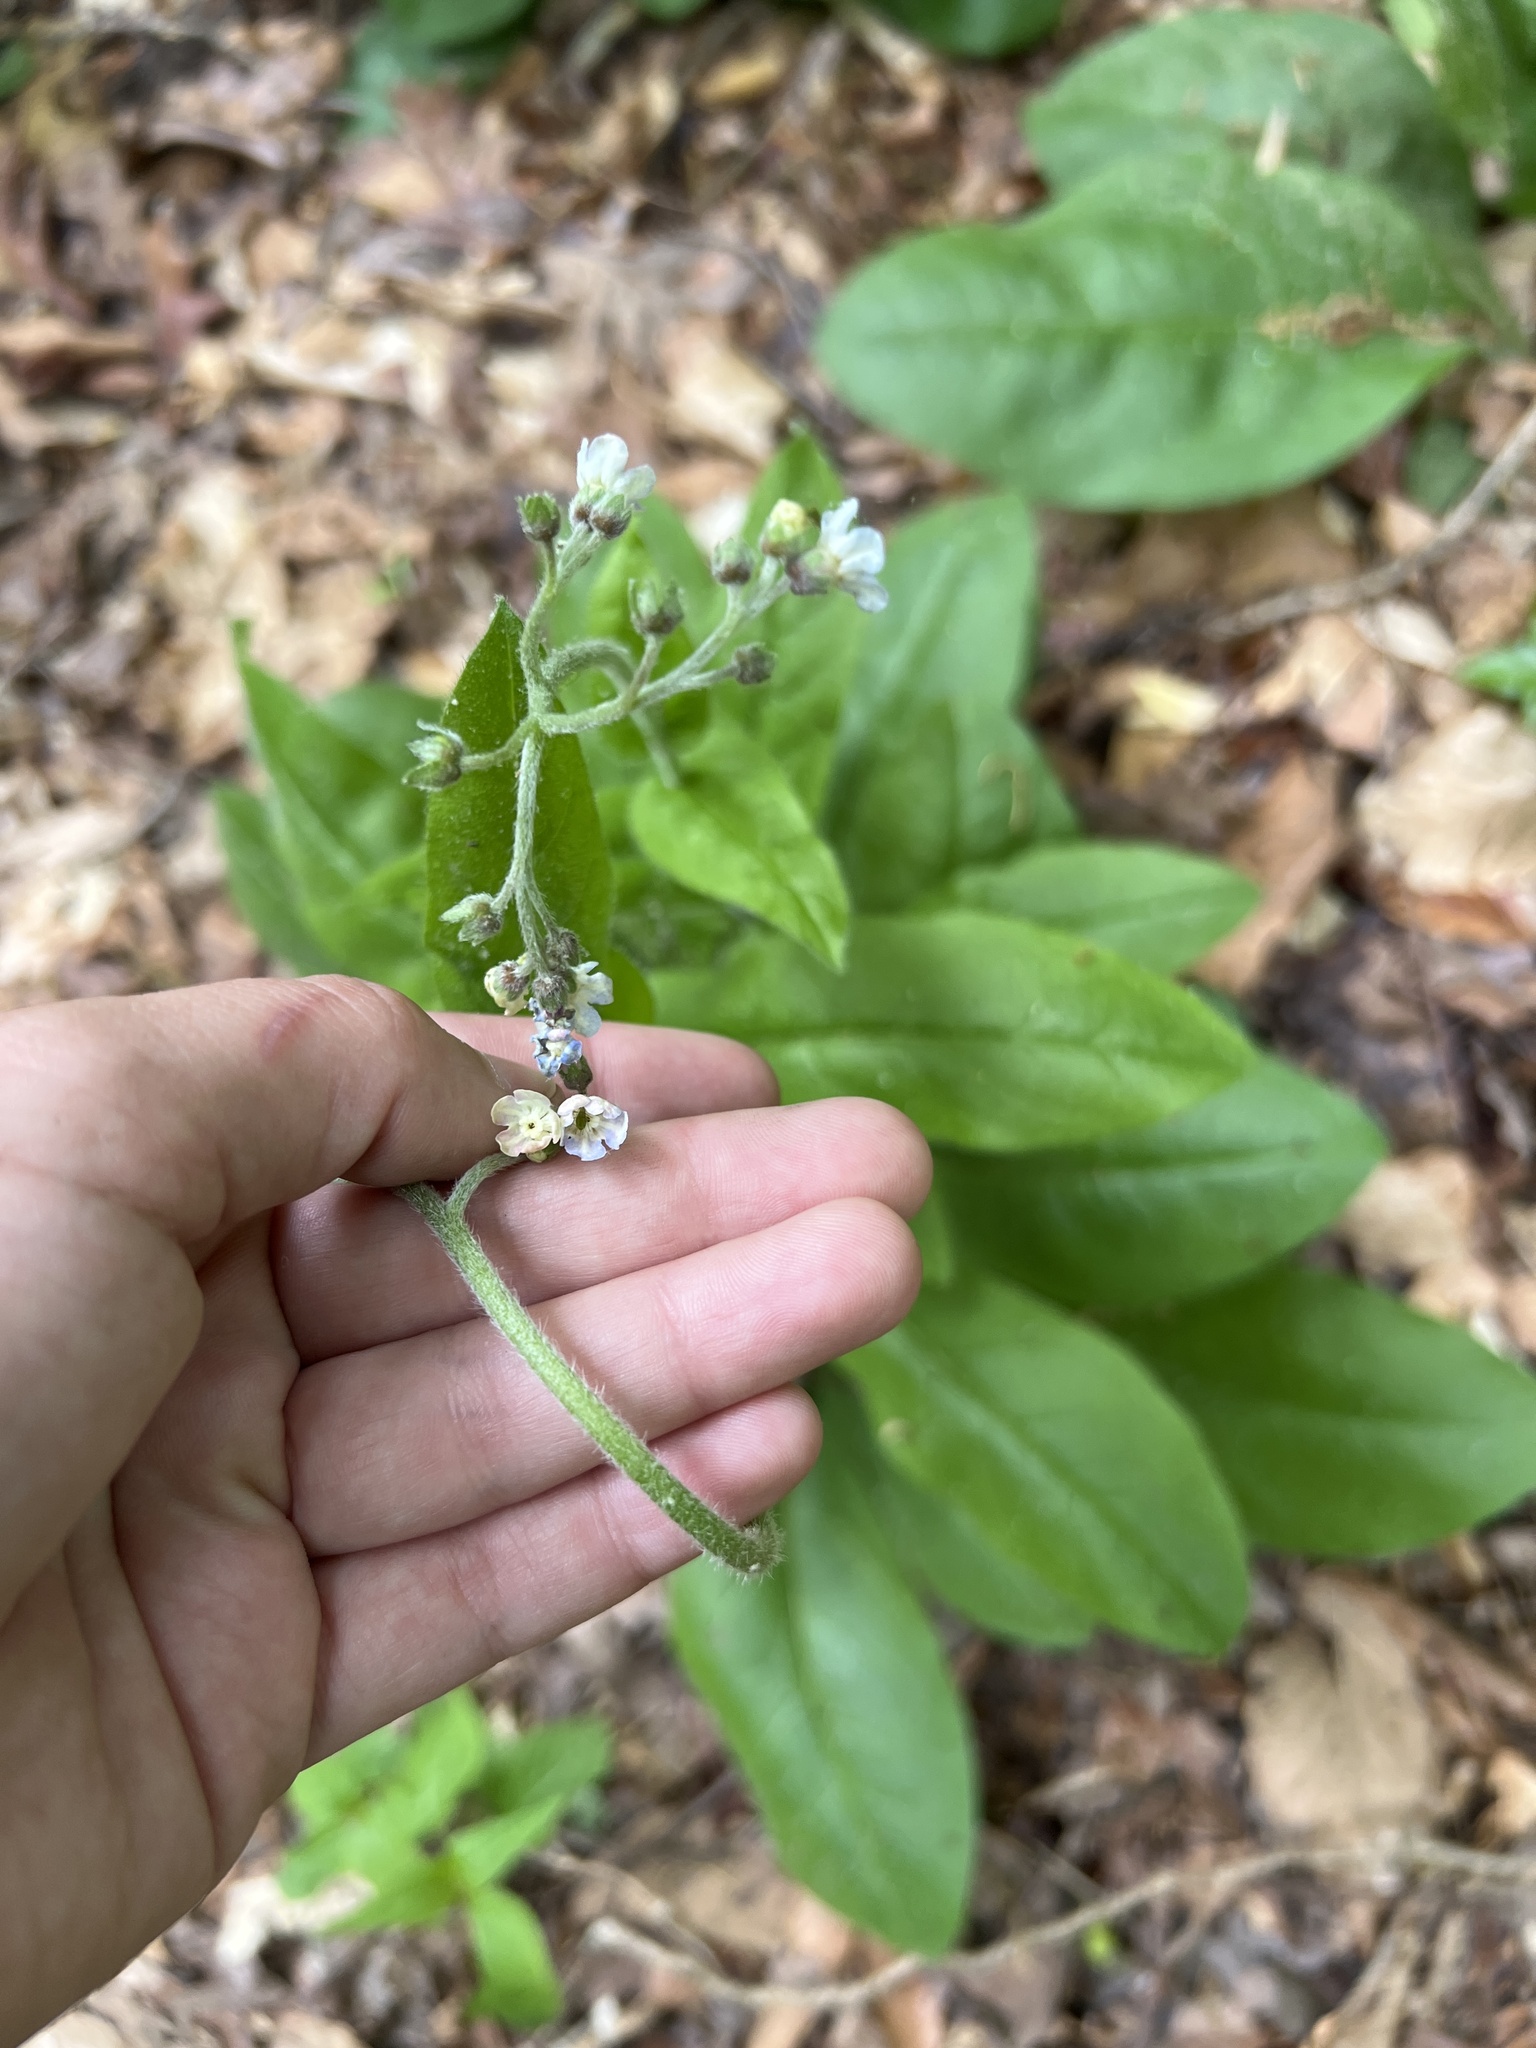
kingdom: Plantae
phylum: Tracheophyta
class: Magnoliopsida
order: Boraginales
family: Boraginaceae
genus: Andersonglossum
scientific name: Andersonglossum virginianum
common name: Wild comfrey
